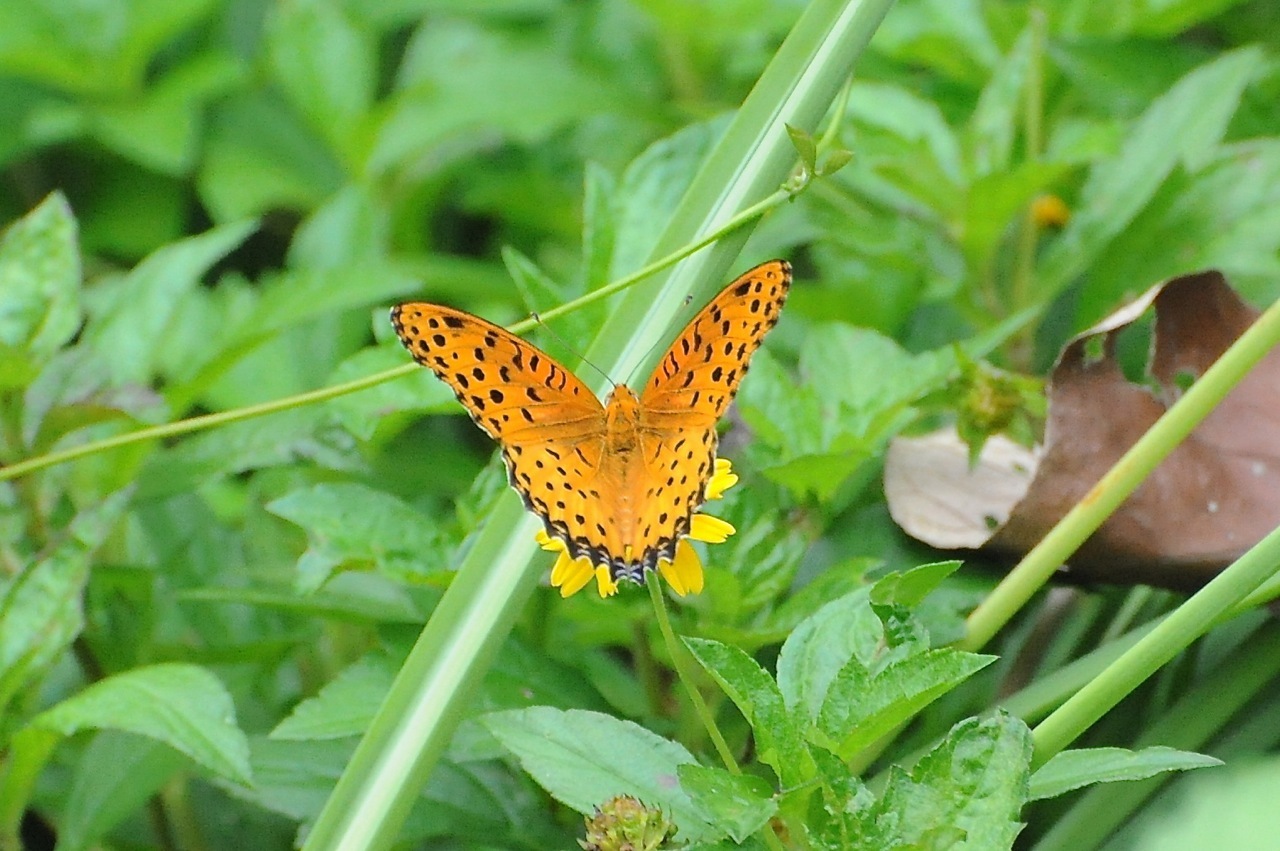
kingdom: Animalia
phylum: Arthropoda
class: Insecta
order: Lepidoptera
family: Nymphalidae
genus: Argynnis
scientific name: Argynnis hyperbius
